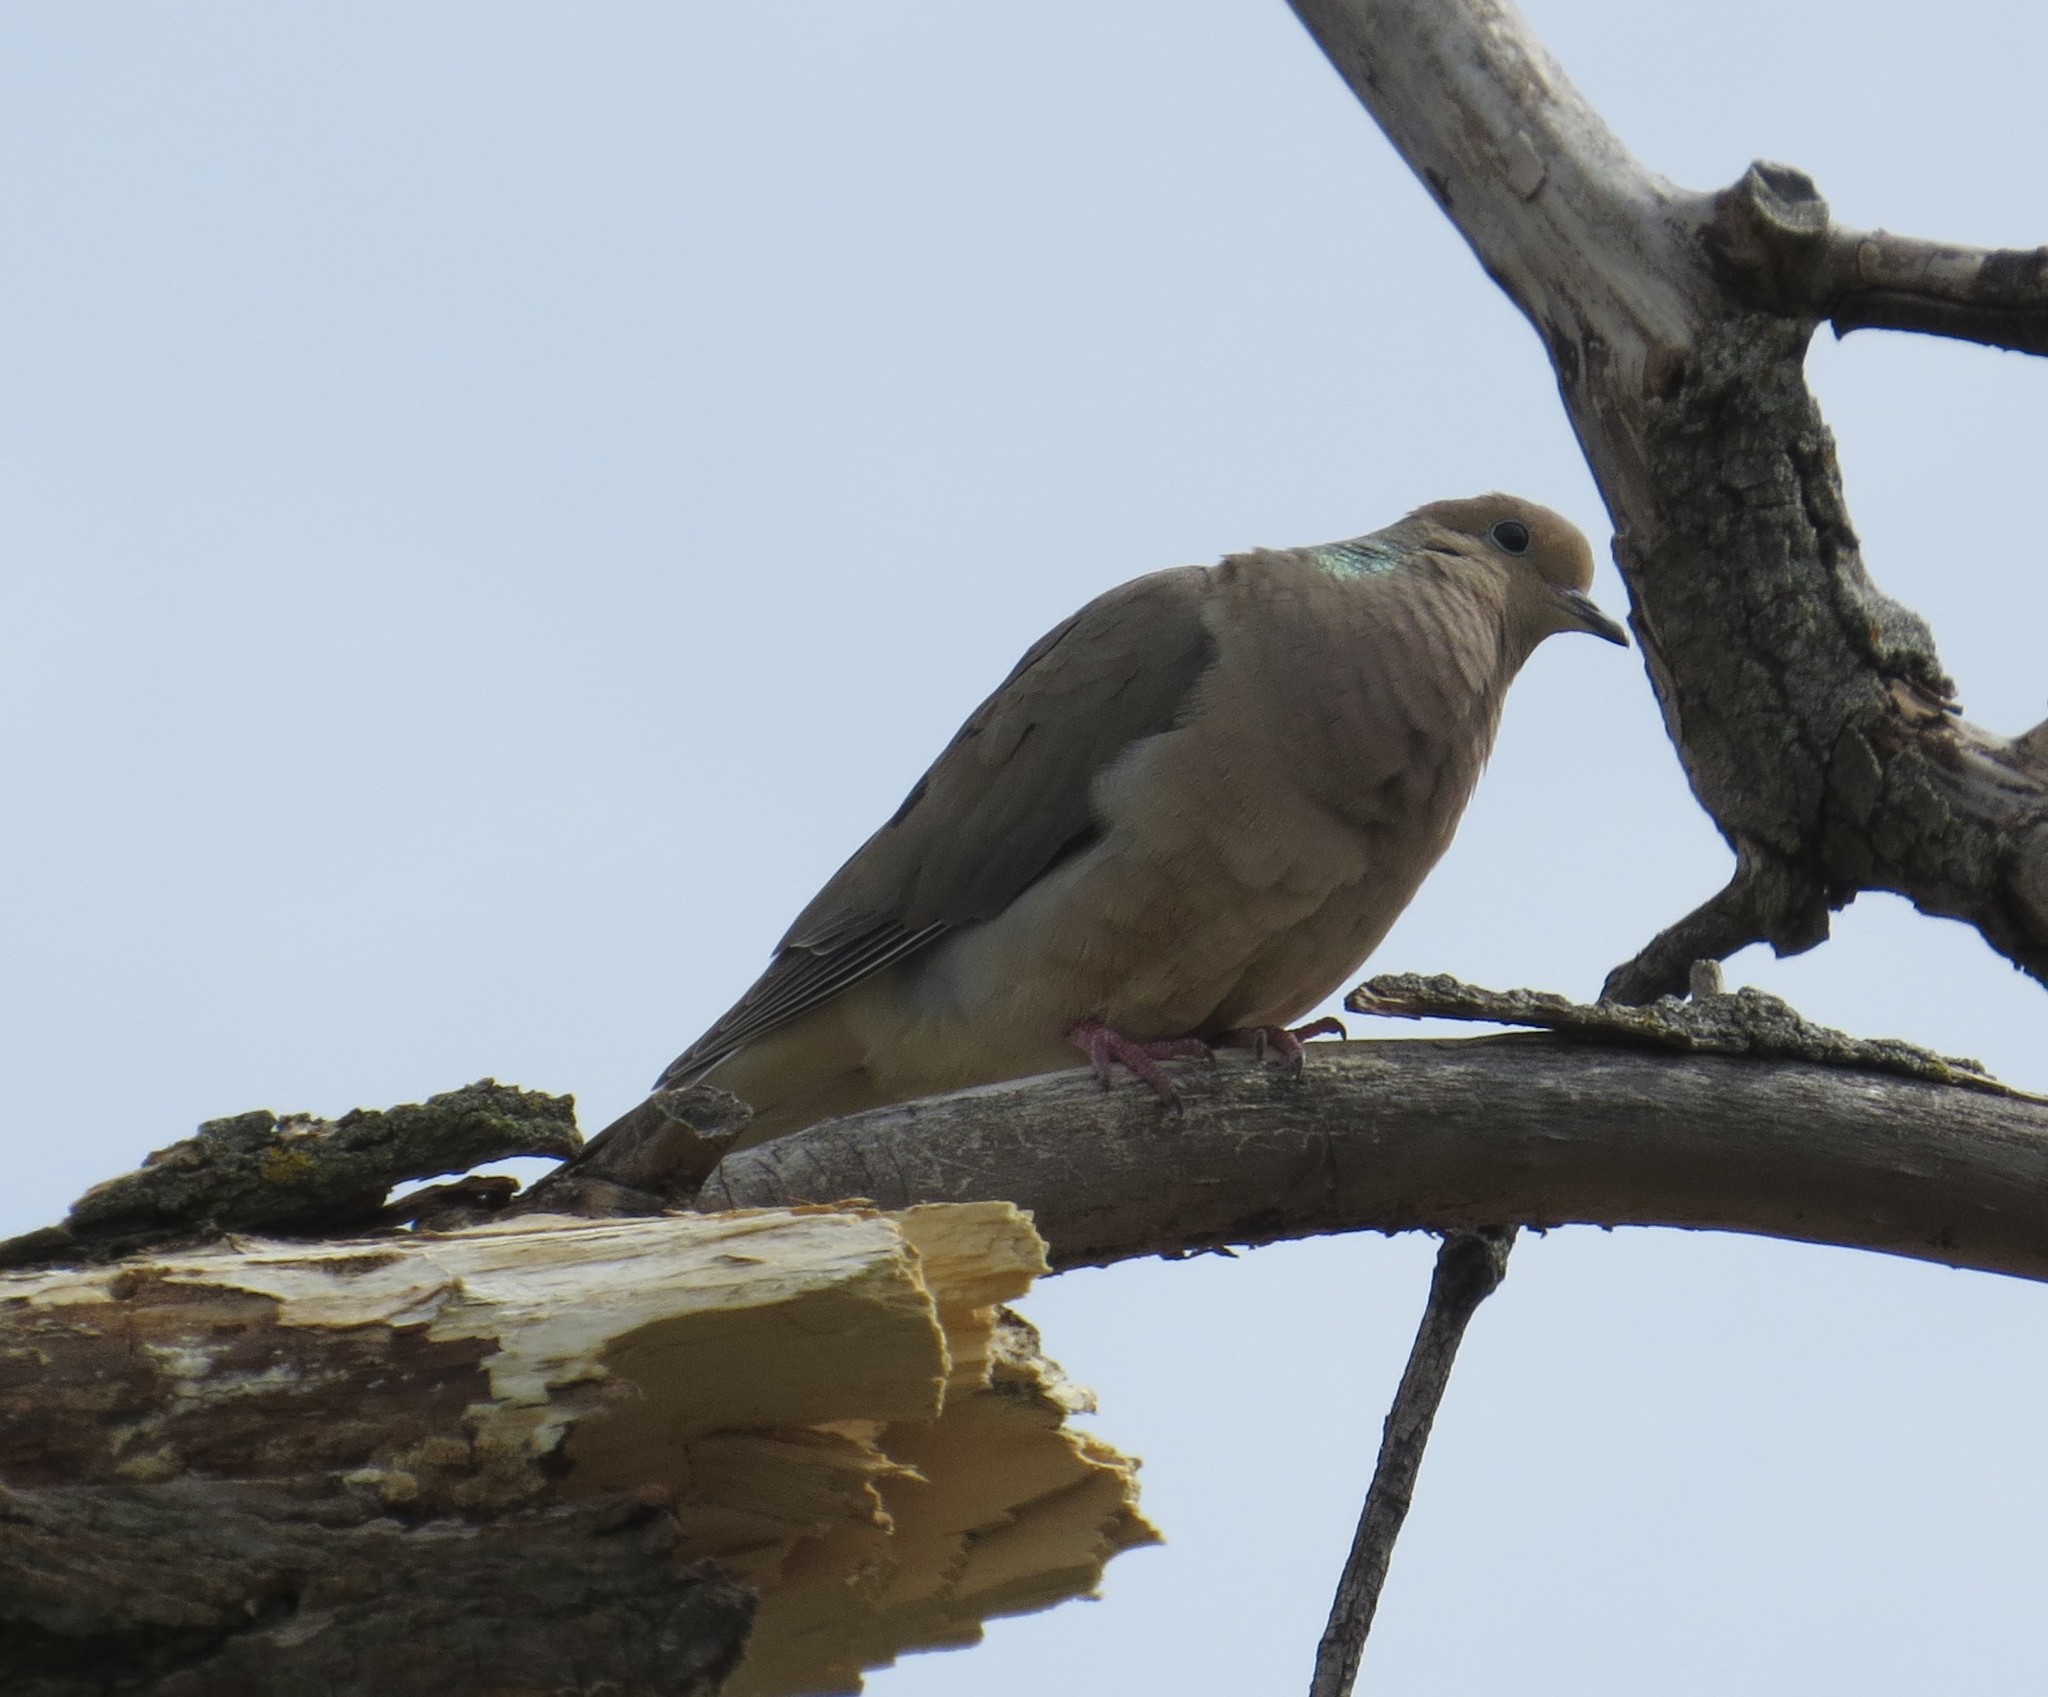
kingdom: Animalia
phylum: Chordata
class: Aves
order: Columbiformes
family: Columbidae
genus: Zenaida
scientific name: Zenaida macroura
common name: Mourning dove
